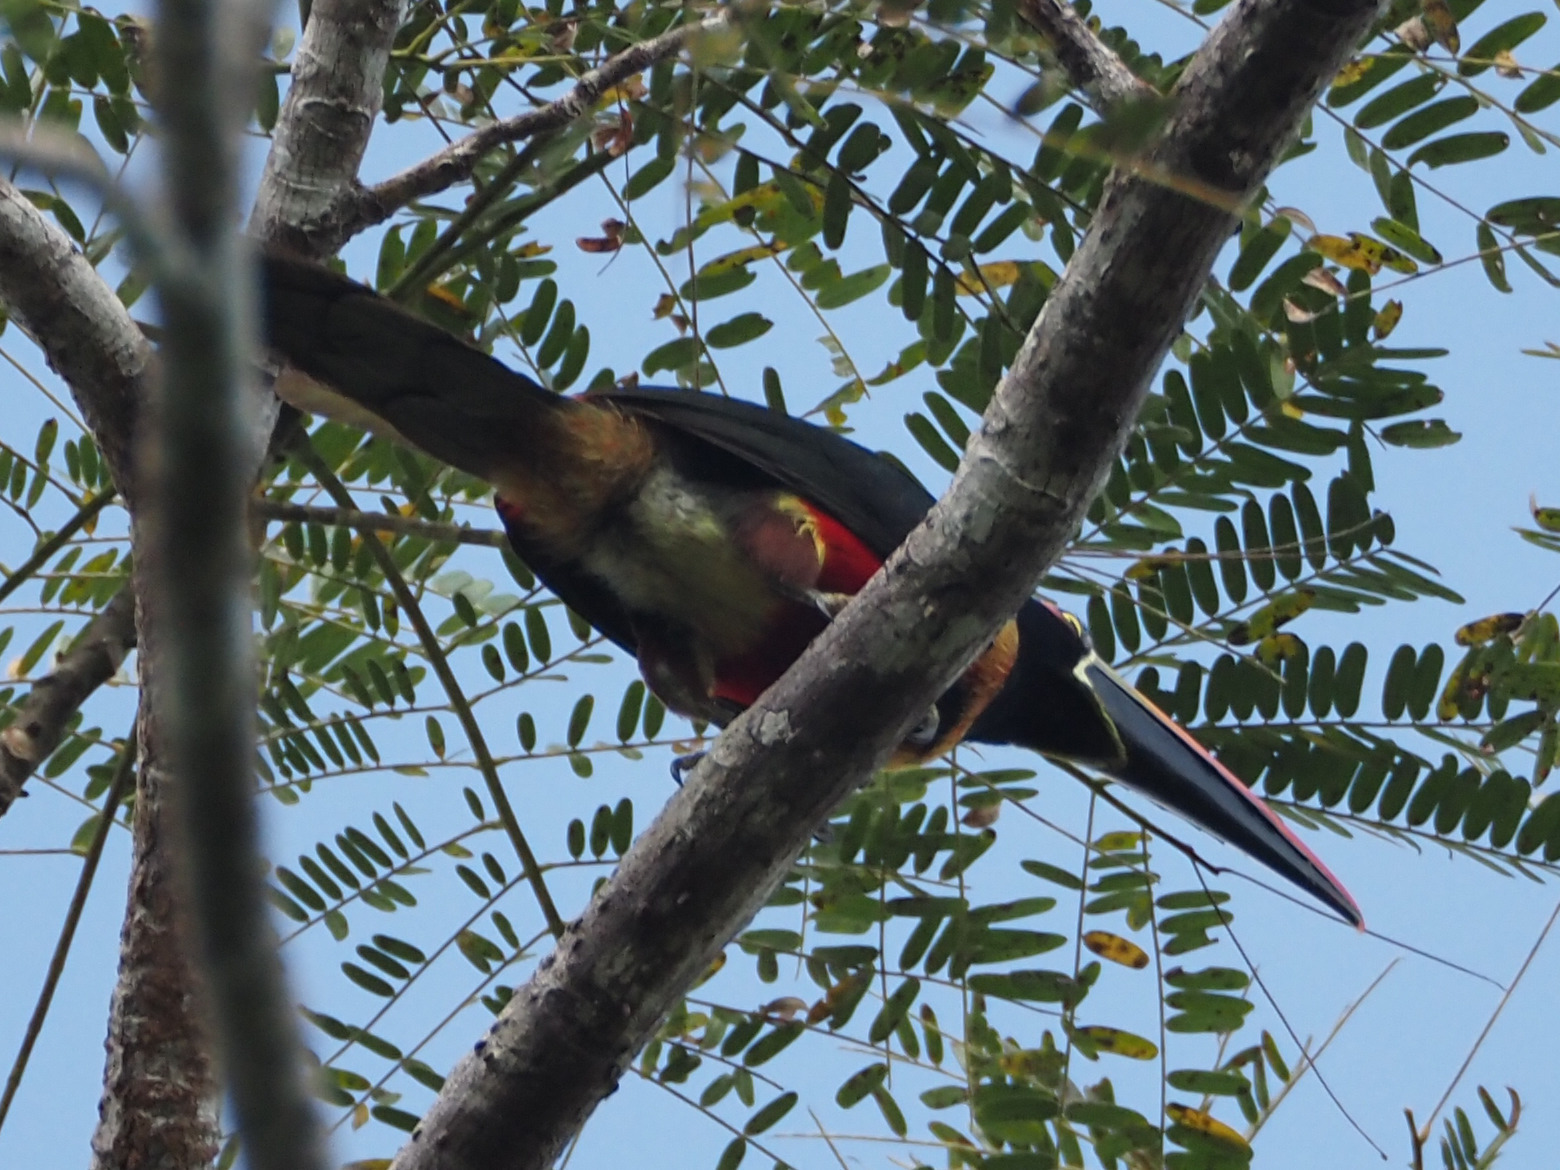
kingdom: Animalia
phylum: Chordata
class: Aves
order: Piciformes
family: Ramphastidae
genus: Pteroglossus
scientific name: Pteroglossus frantzii
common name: Fiery-billed aracari
